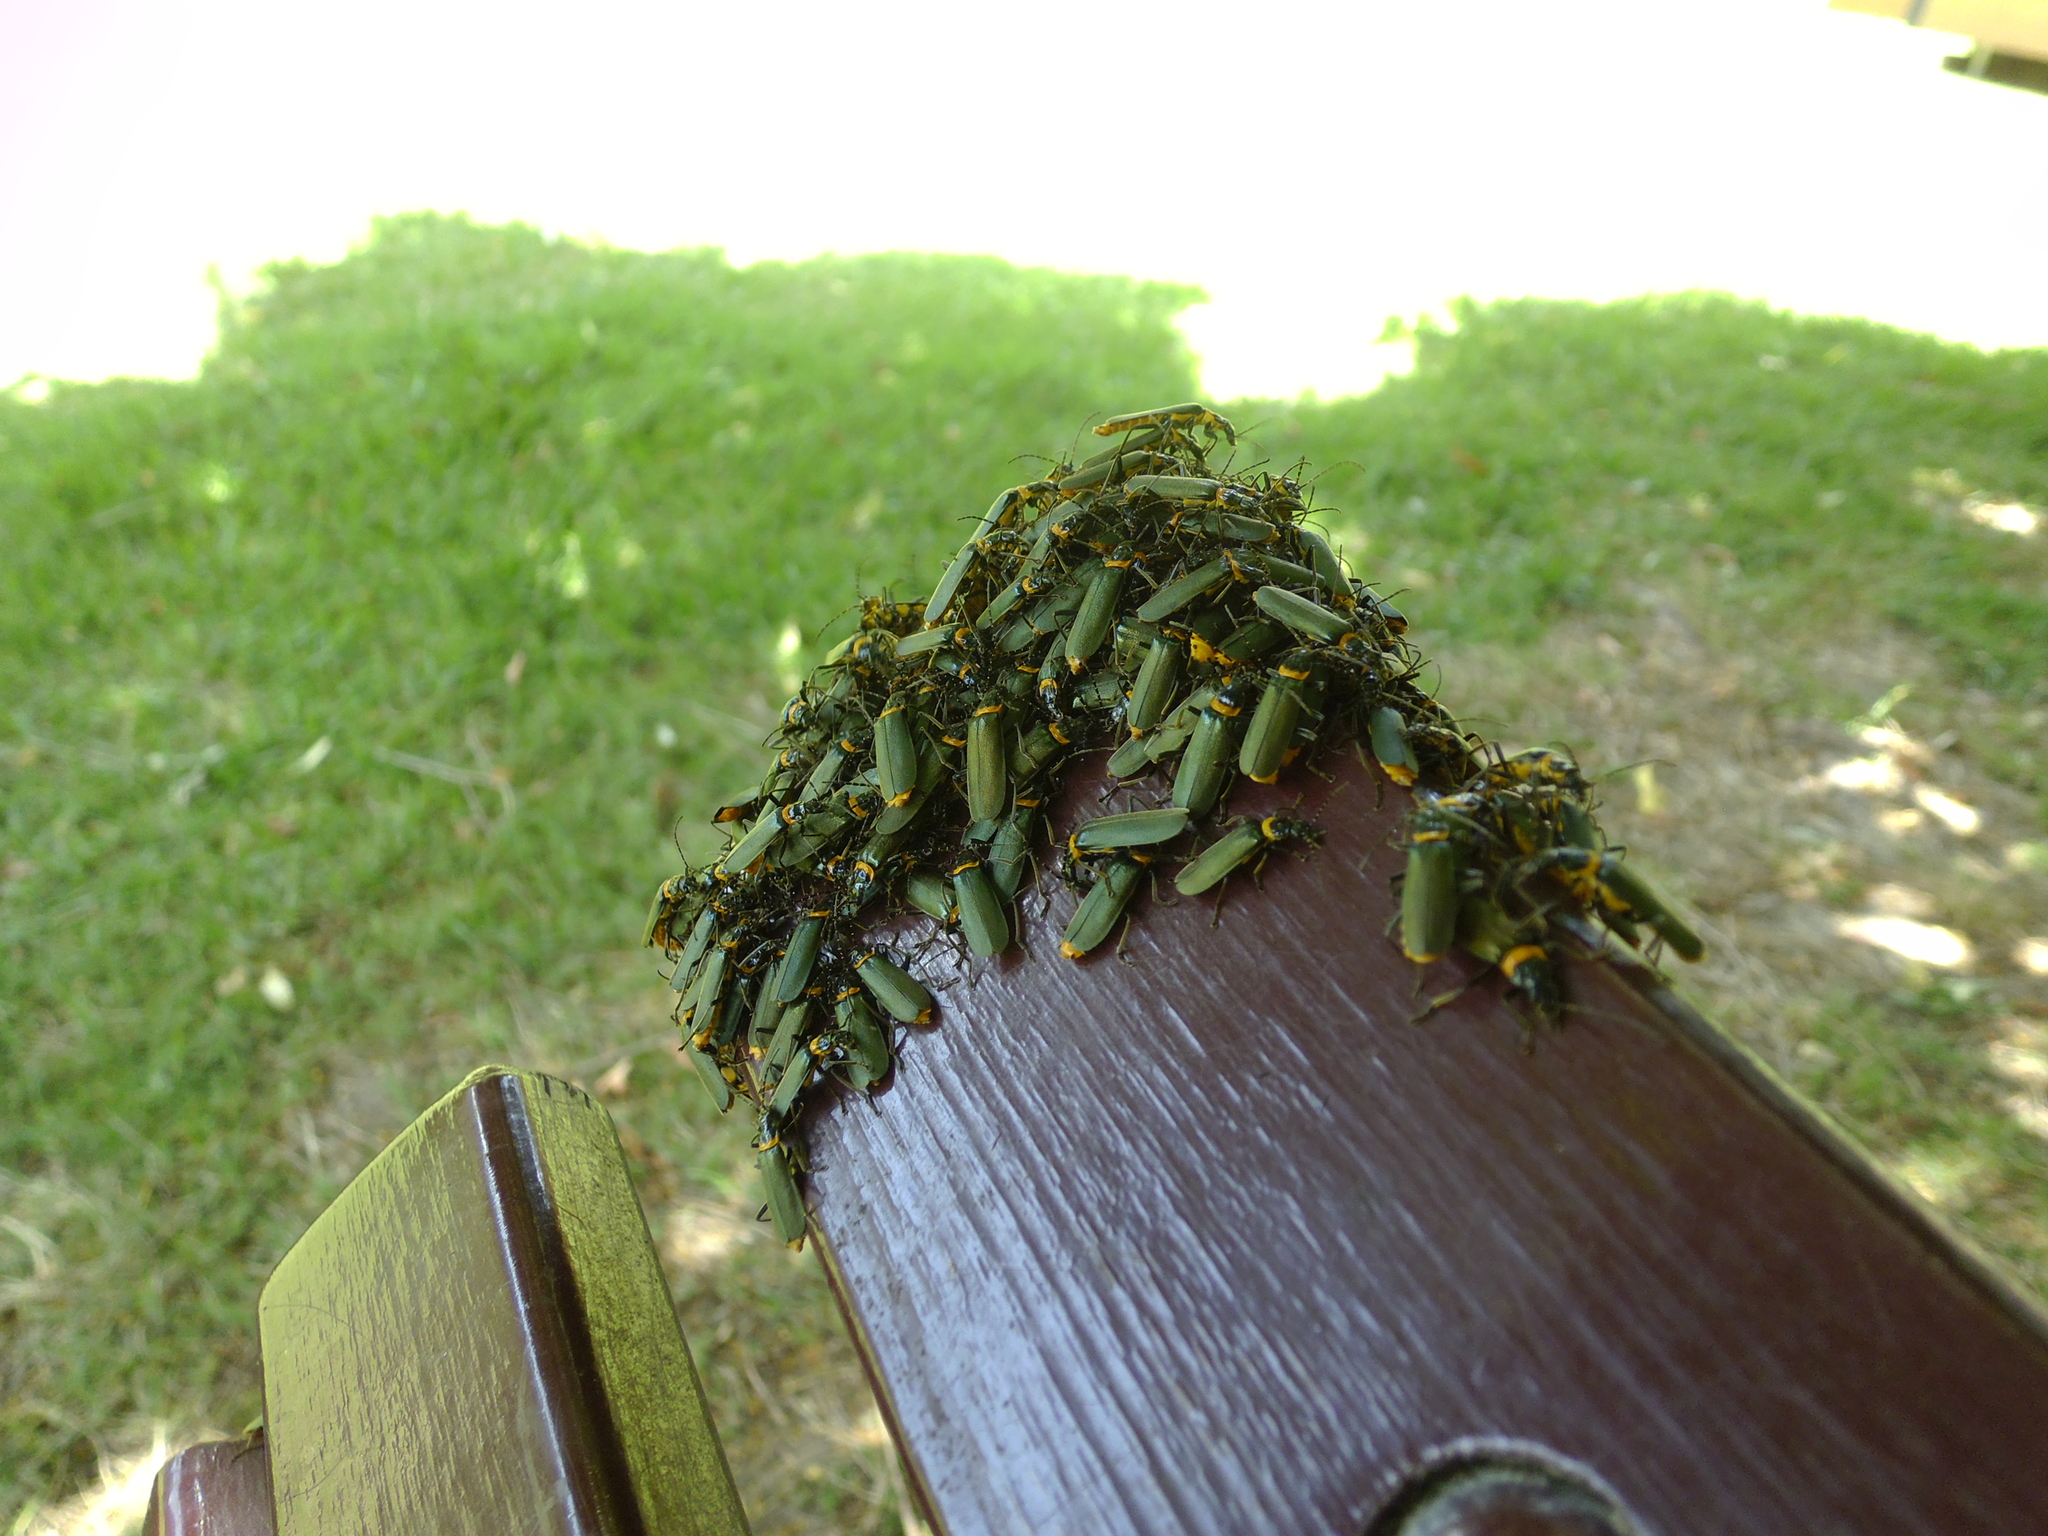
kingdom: Animalia
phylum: Arthropoda
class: Insecta
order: Coleoptera
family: Cantharidae
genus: Chauliognathus
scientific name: Chauliognathus
